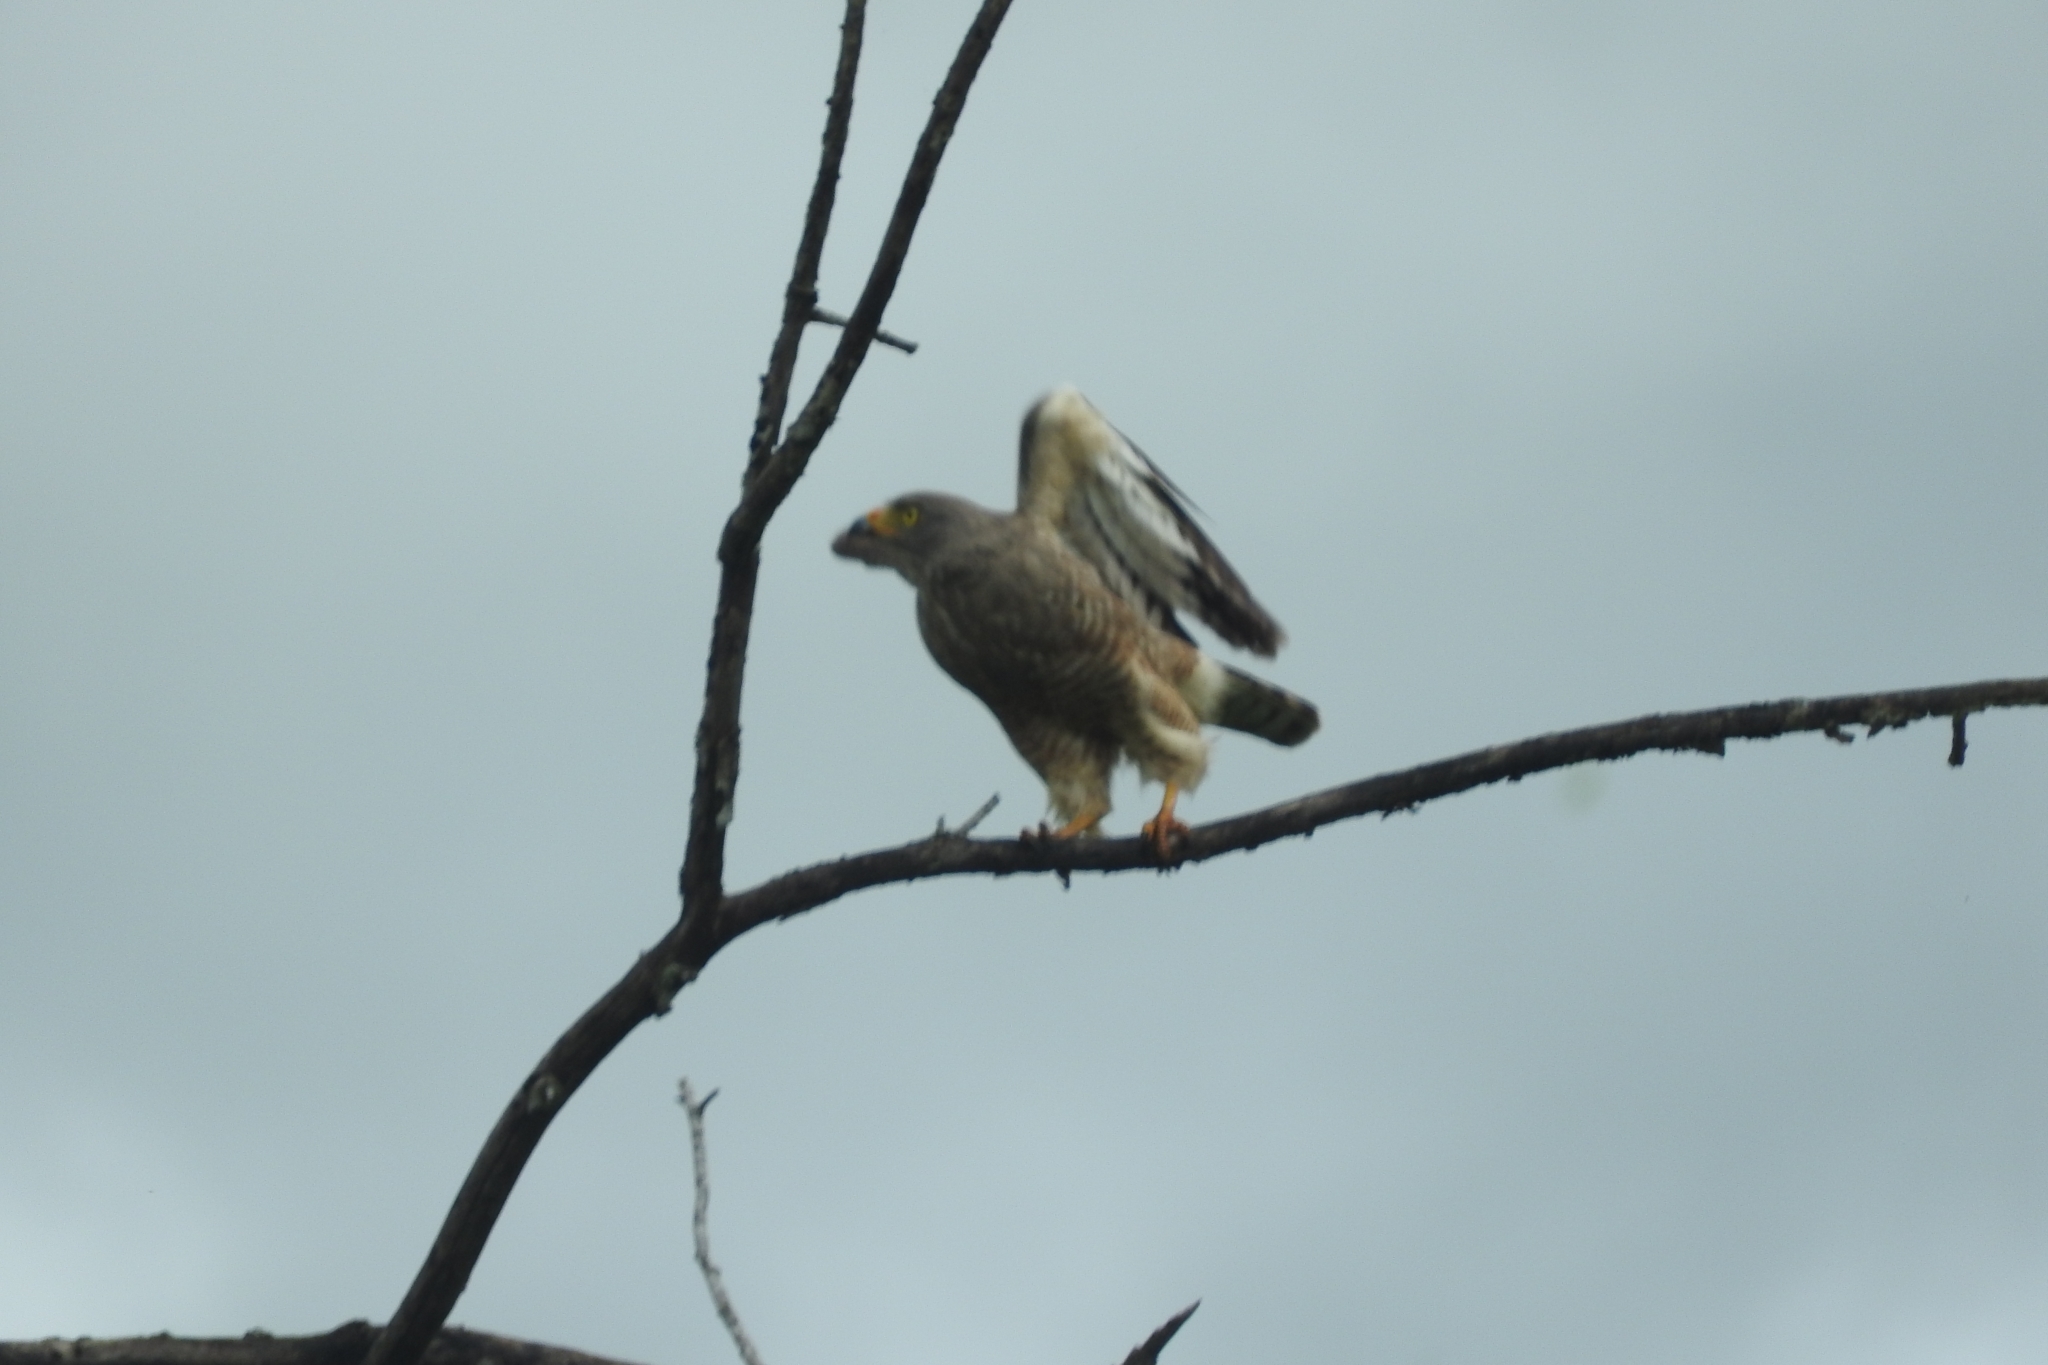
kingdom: Animalia
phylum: Chordata
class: Aves
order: Accipitriformes
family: Accipitridae
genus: Rupornis
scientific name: Rupornis magnirostris
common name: Roadside hawk
